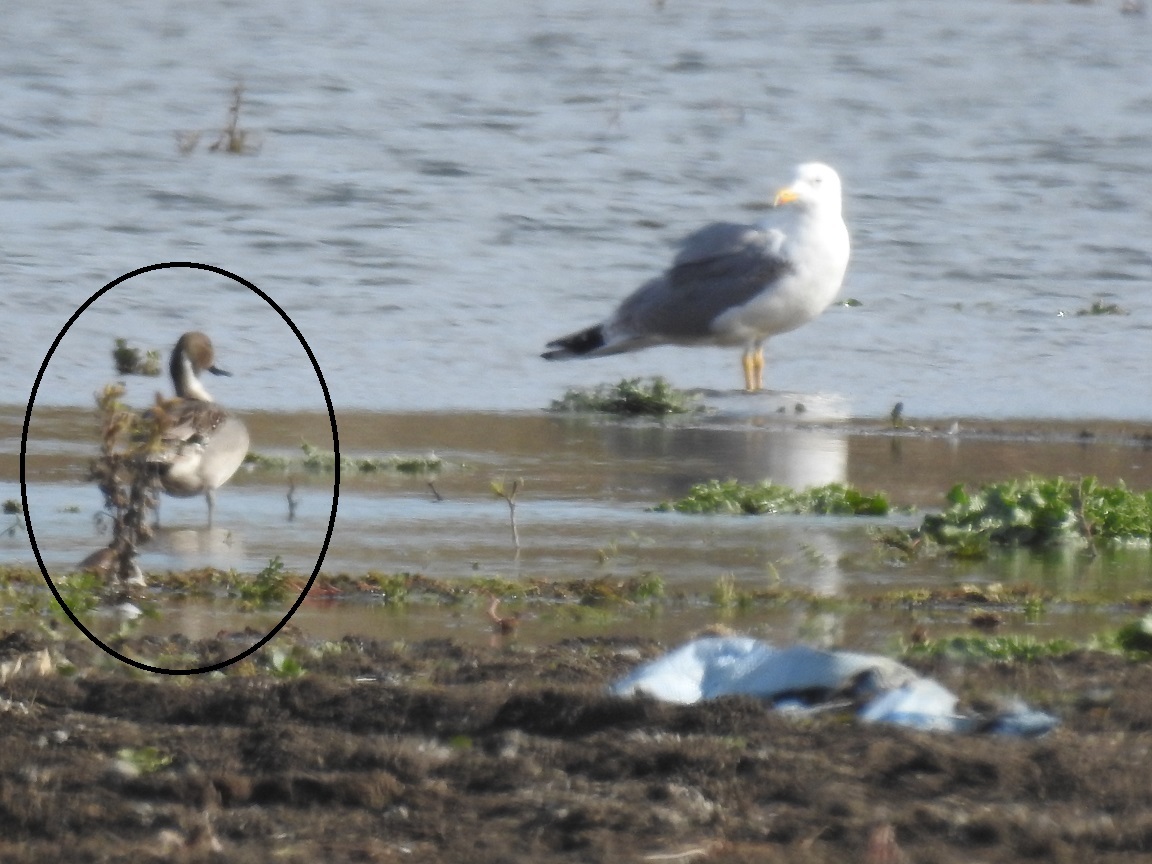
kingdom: Animalia
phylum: Chordata
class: Aves
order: Anseriformes
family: Anatidae
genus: Anas
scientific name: Anas acuta
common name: Northern pintail
